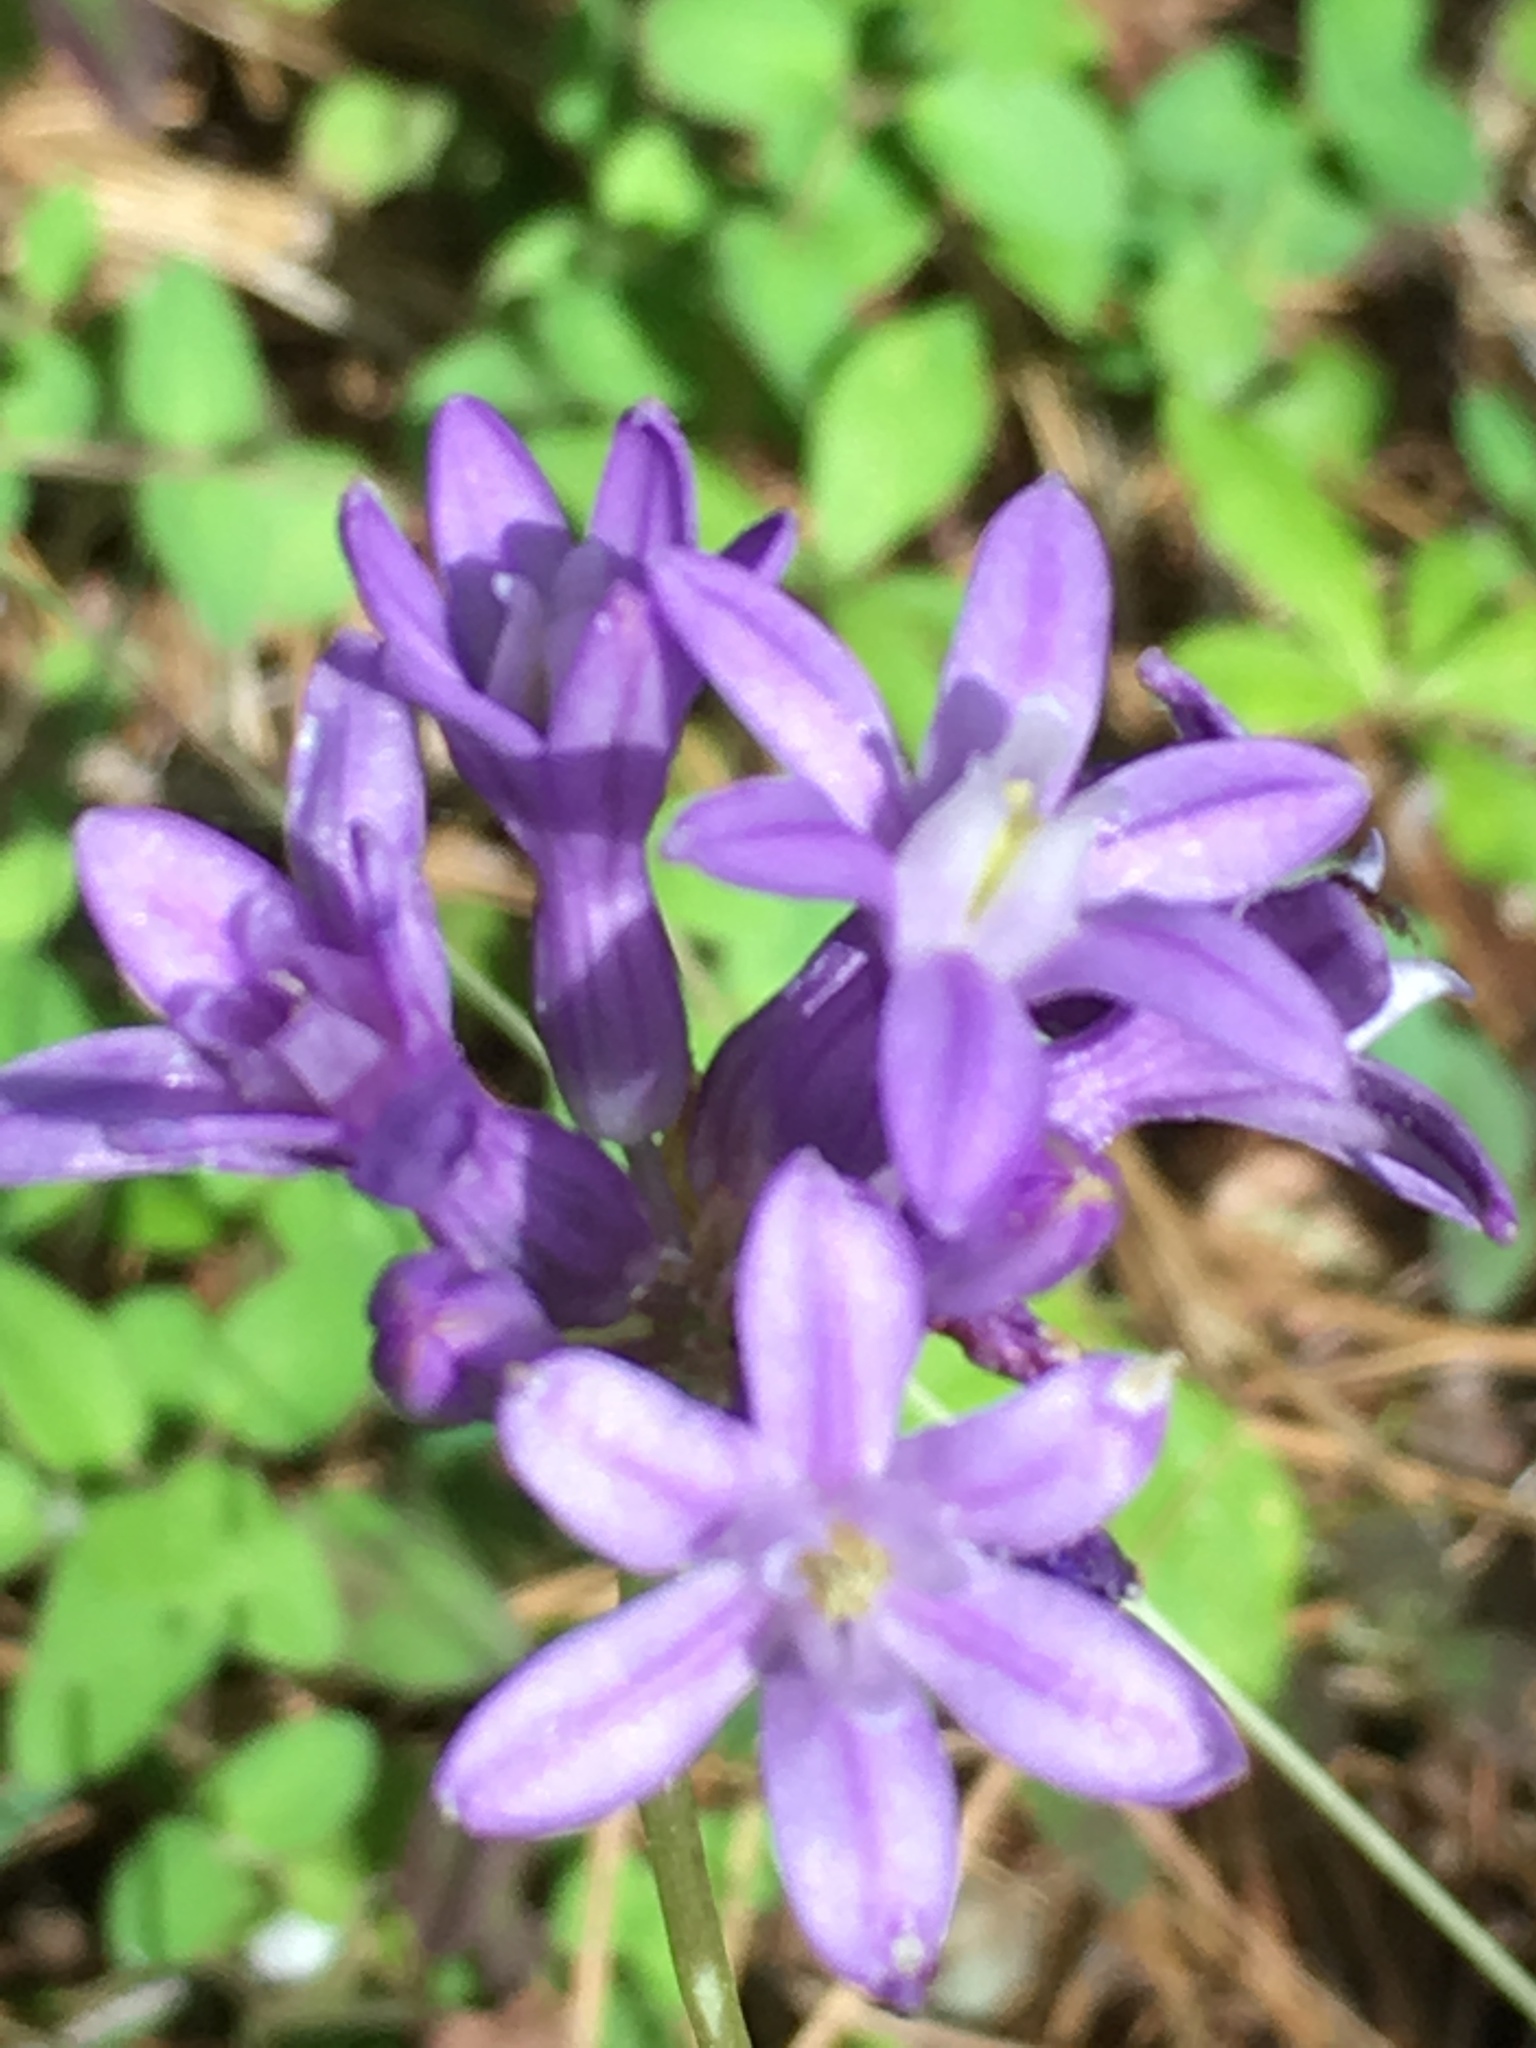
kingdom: Plantae
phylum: Tracheophyta
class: Liliopsida
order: Asparagales
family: Asparagaceae
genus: Dichelostemma
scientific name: Dichelostemma multiflorum
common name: Round-tooth ookow
